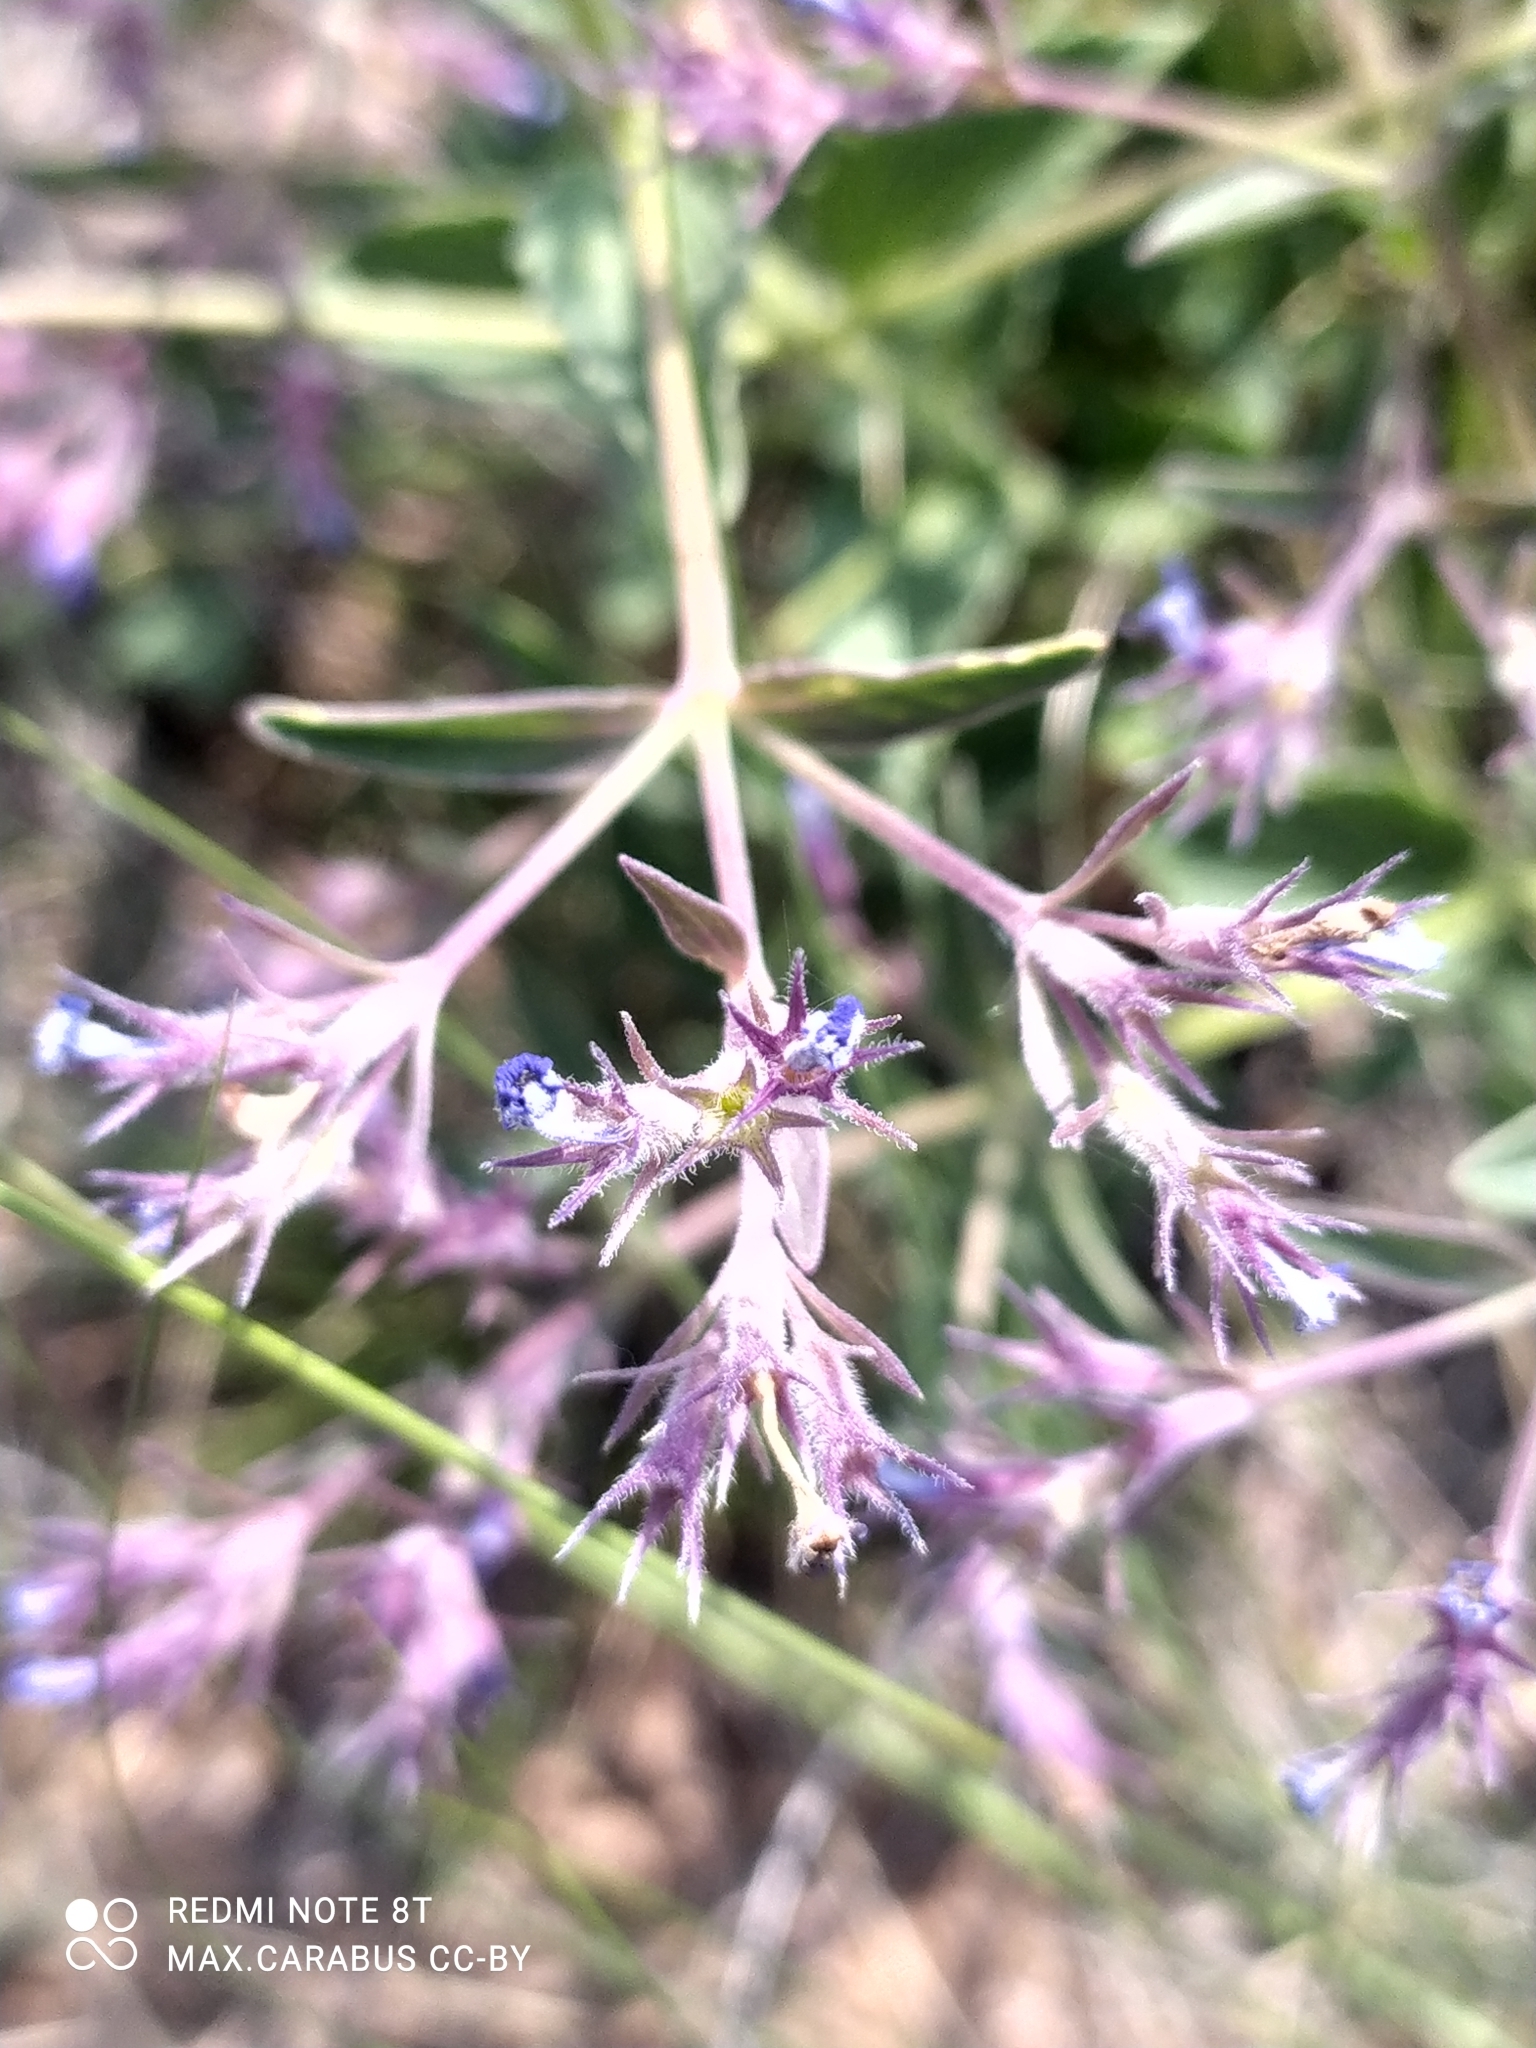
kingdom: Plantae
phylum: Tracheophyta
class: Magnoliopsida
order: Lamiales
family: Lamiaceae
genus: Nepeta
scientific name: Nepeta ucranica
